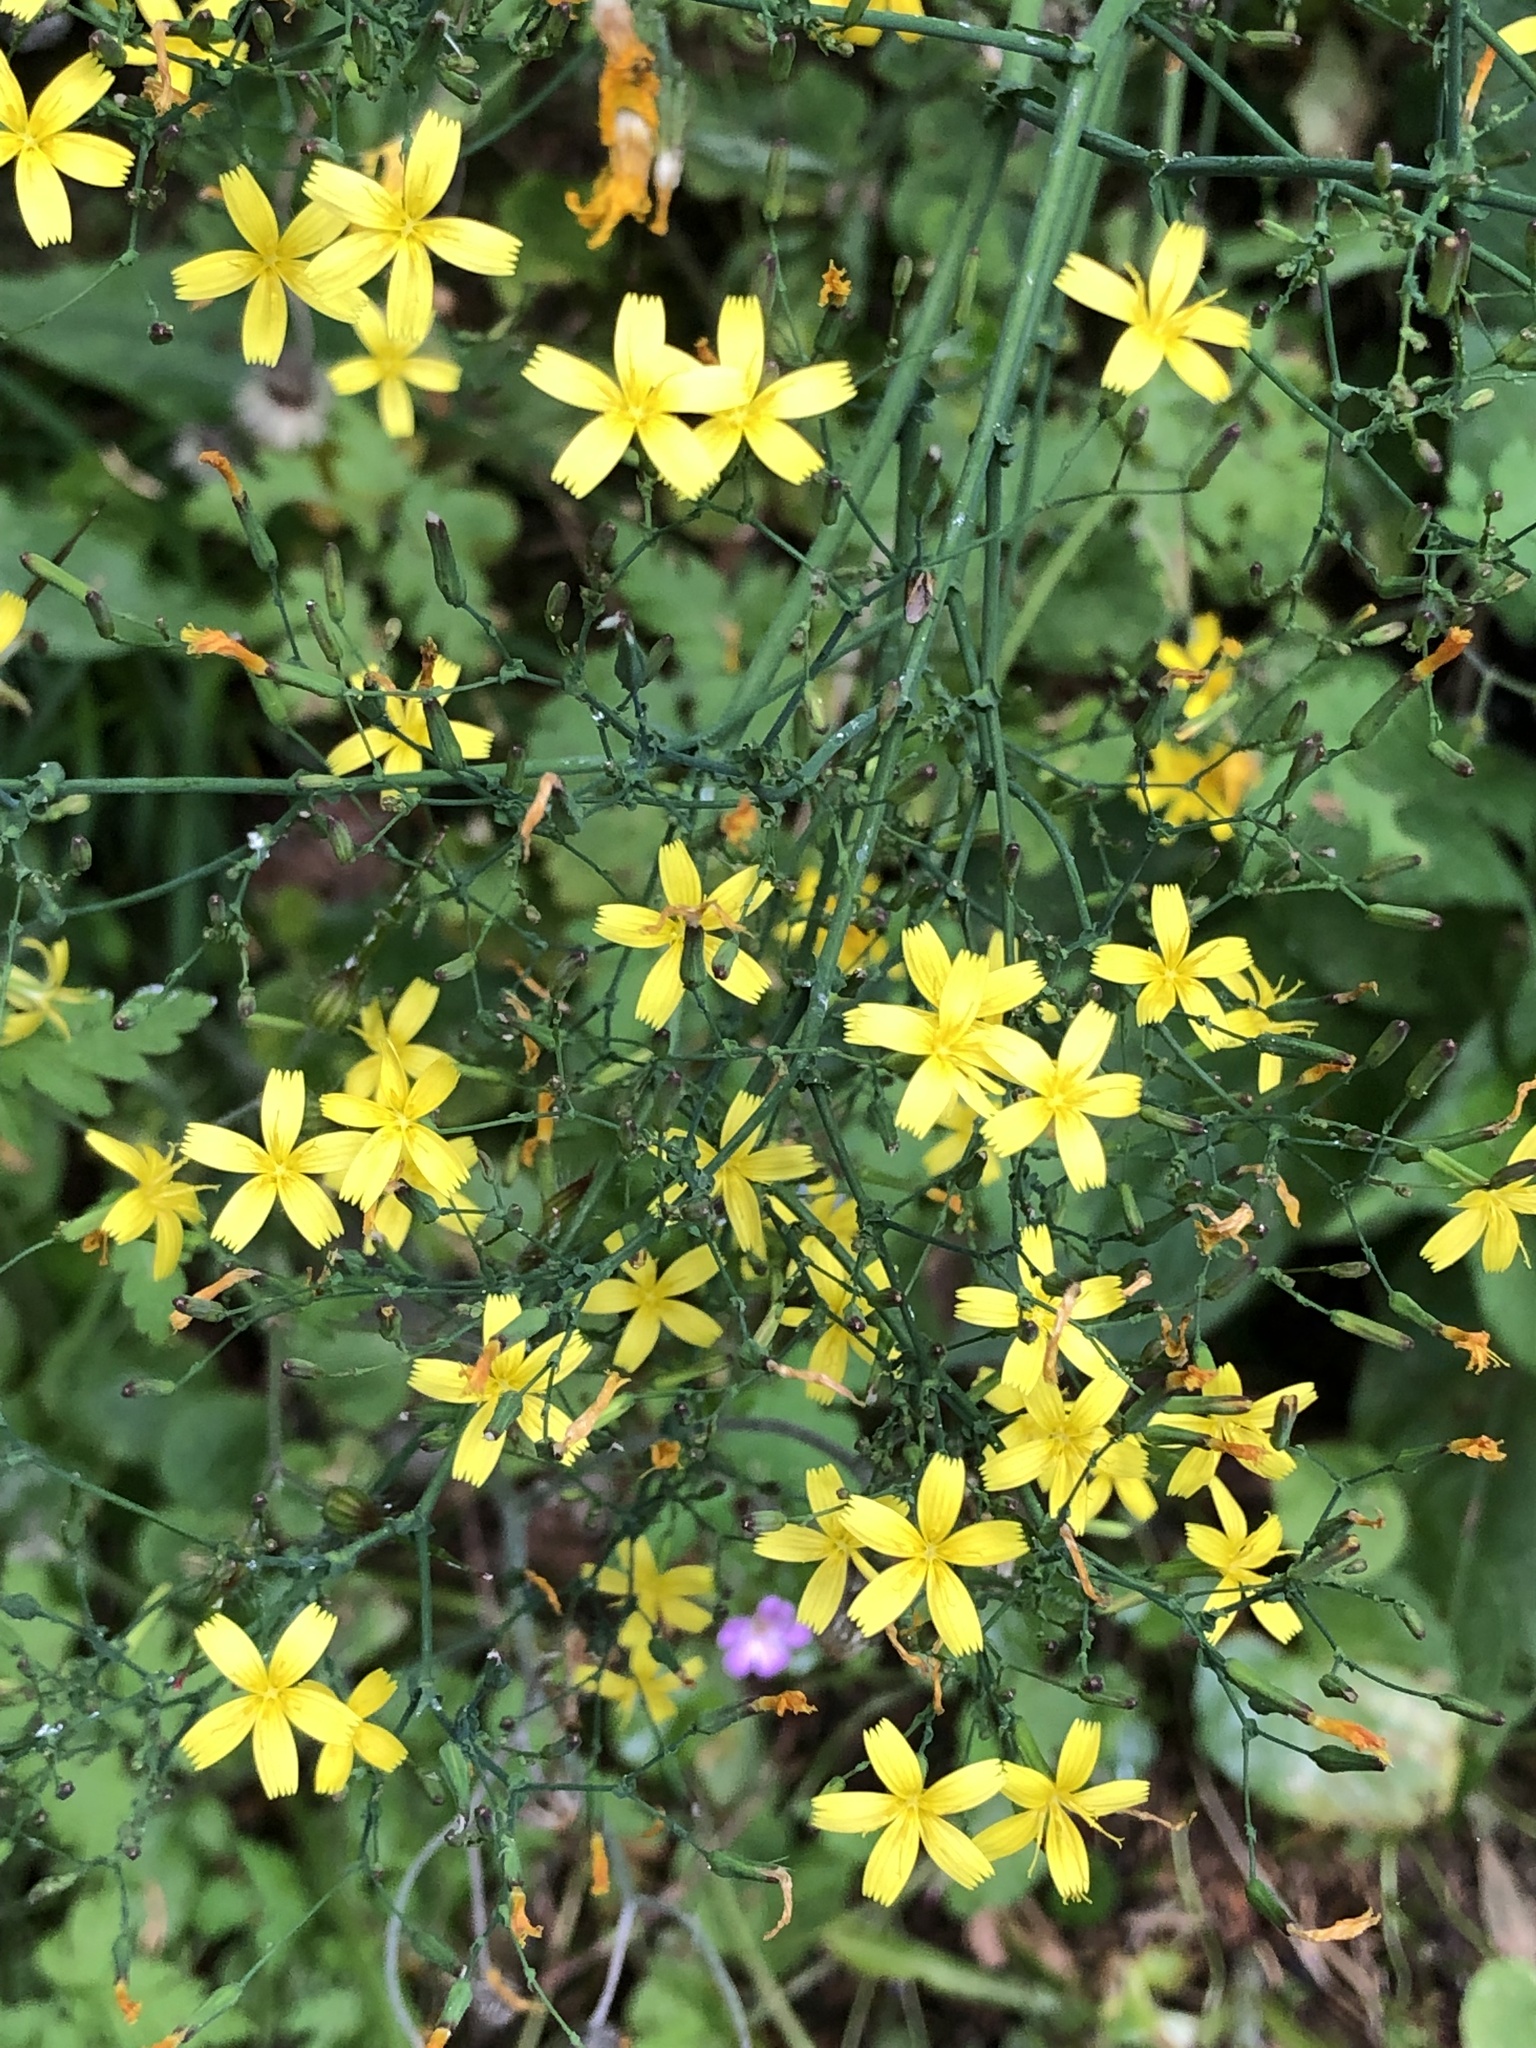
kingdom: Plantae
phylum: Tracheophyta
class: Magnoliopsida
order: Asterales
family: Asteraceae
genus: Mycelis
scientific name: Mycelis muralis
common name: Wall lettuce
